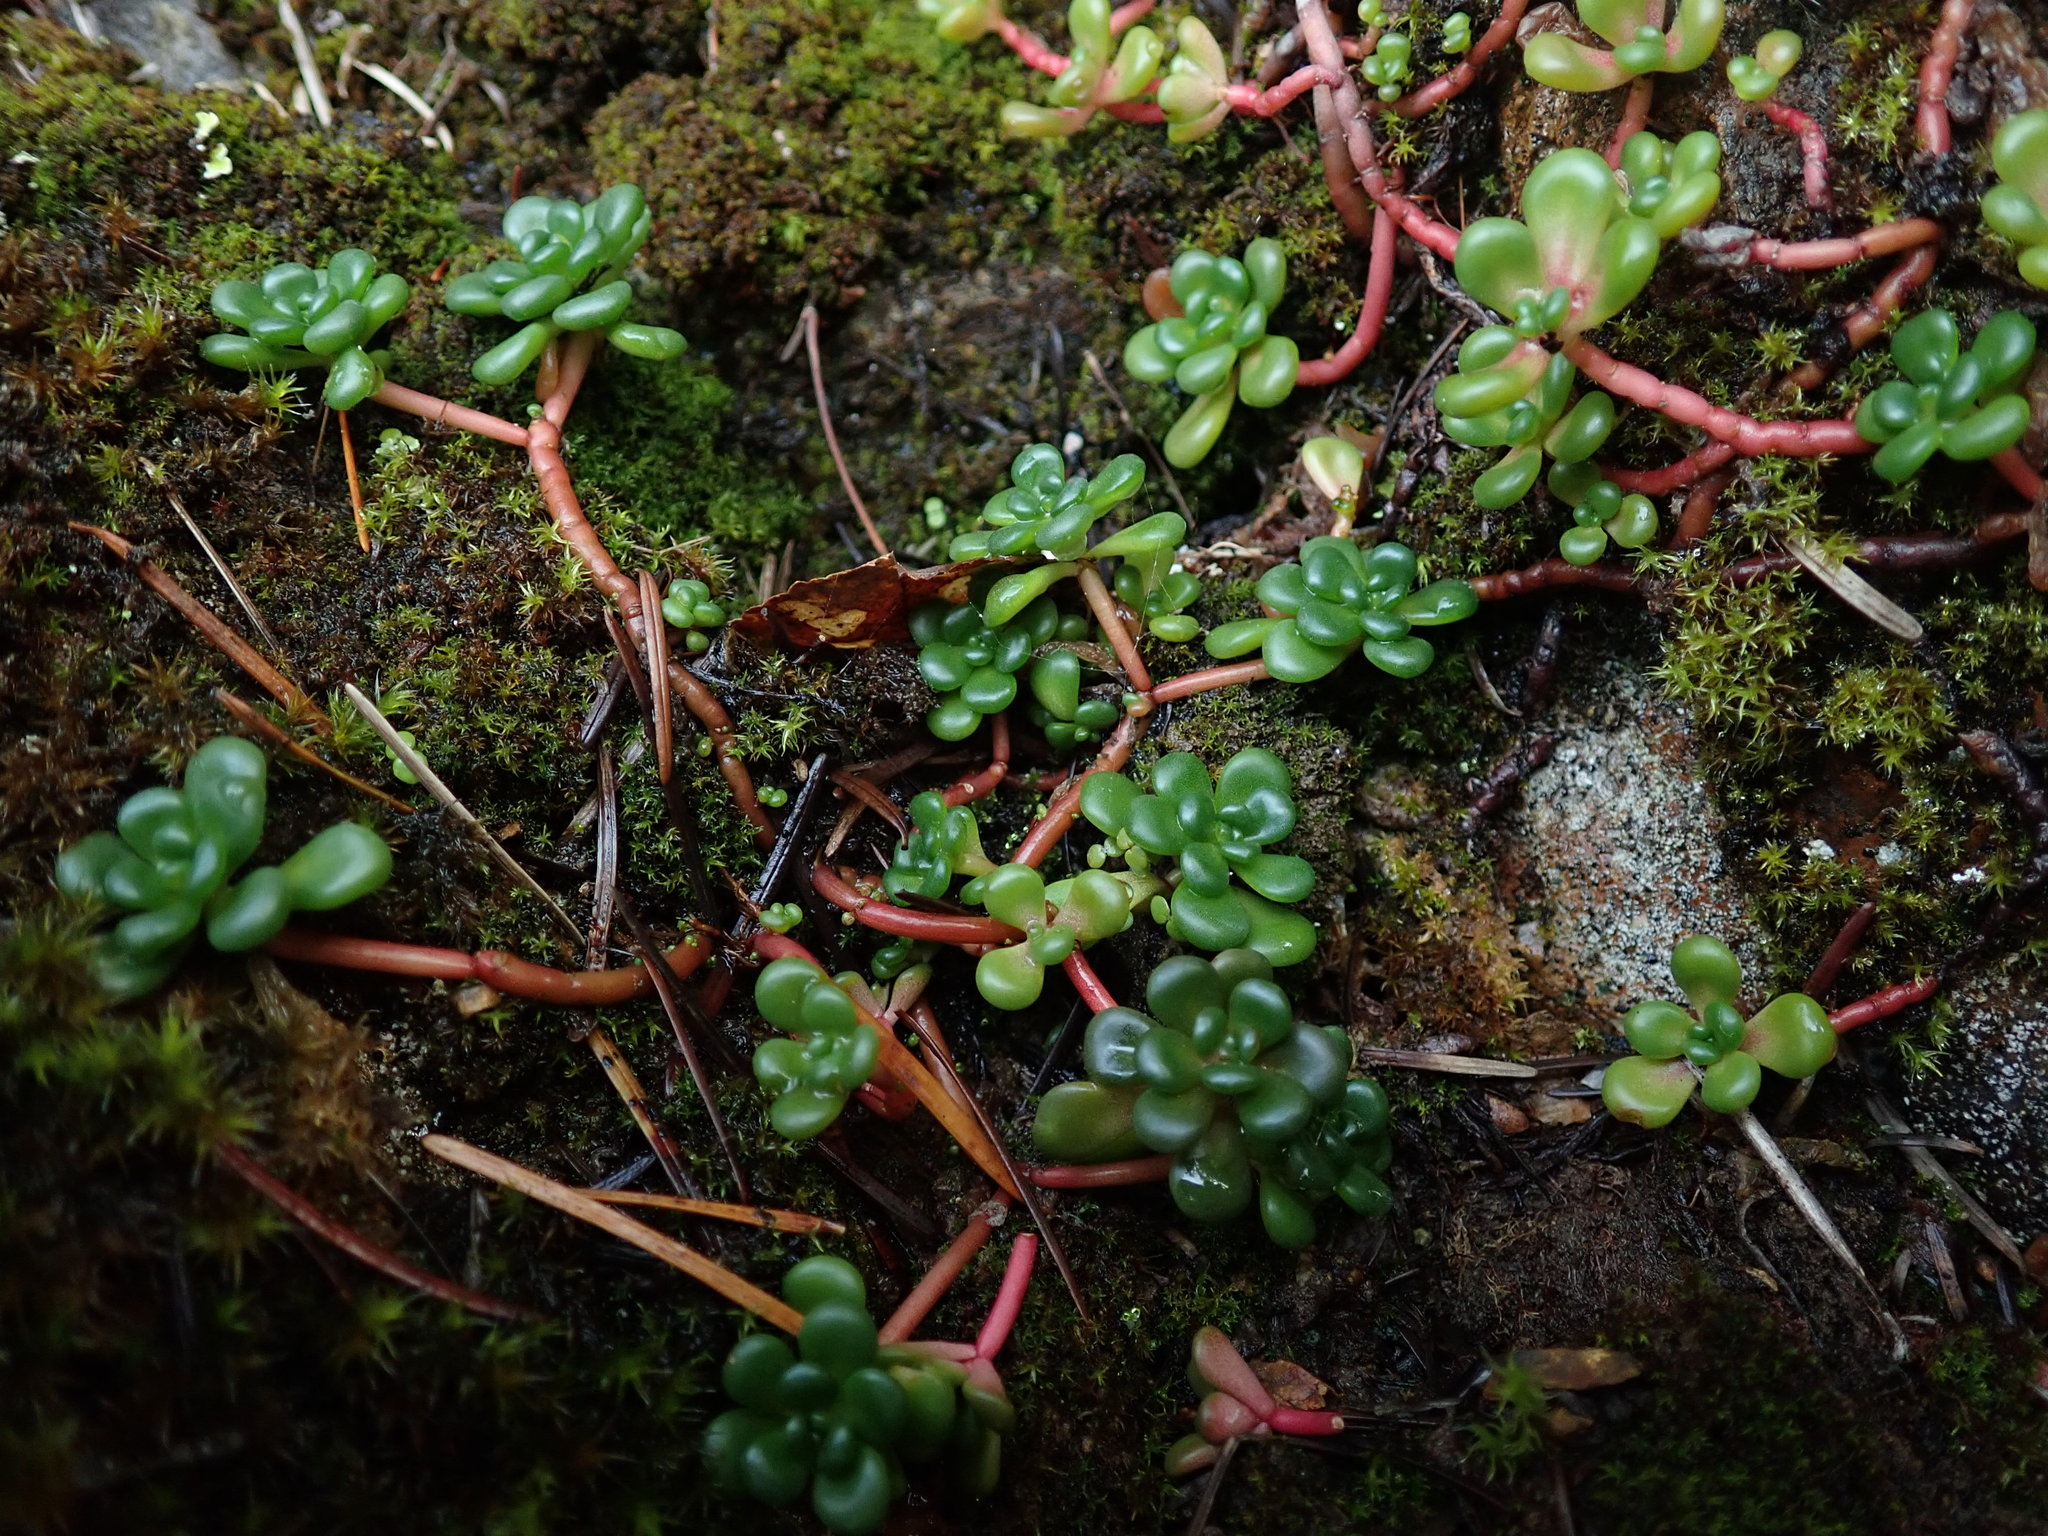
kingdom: Plantae
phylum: Tracheophyta
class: Magnoliopsida
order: Saxifragales
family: Crassulaceae
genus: Sedum
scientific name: Sedum oreganum
